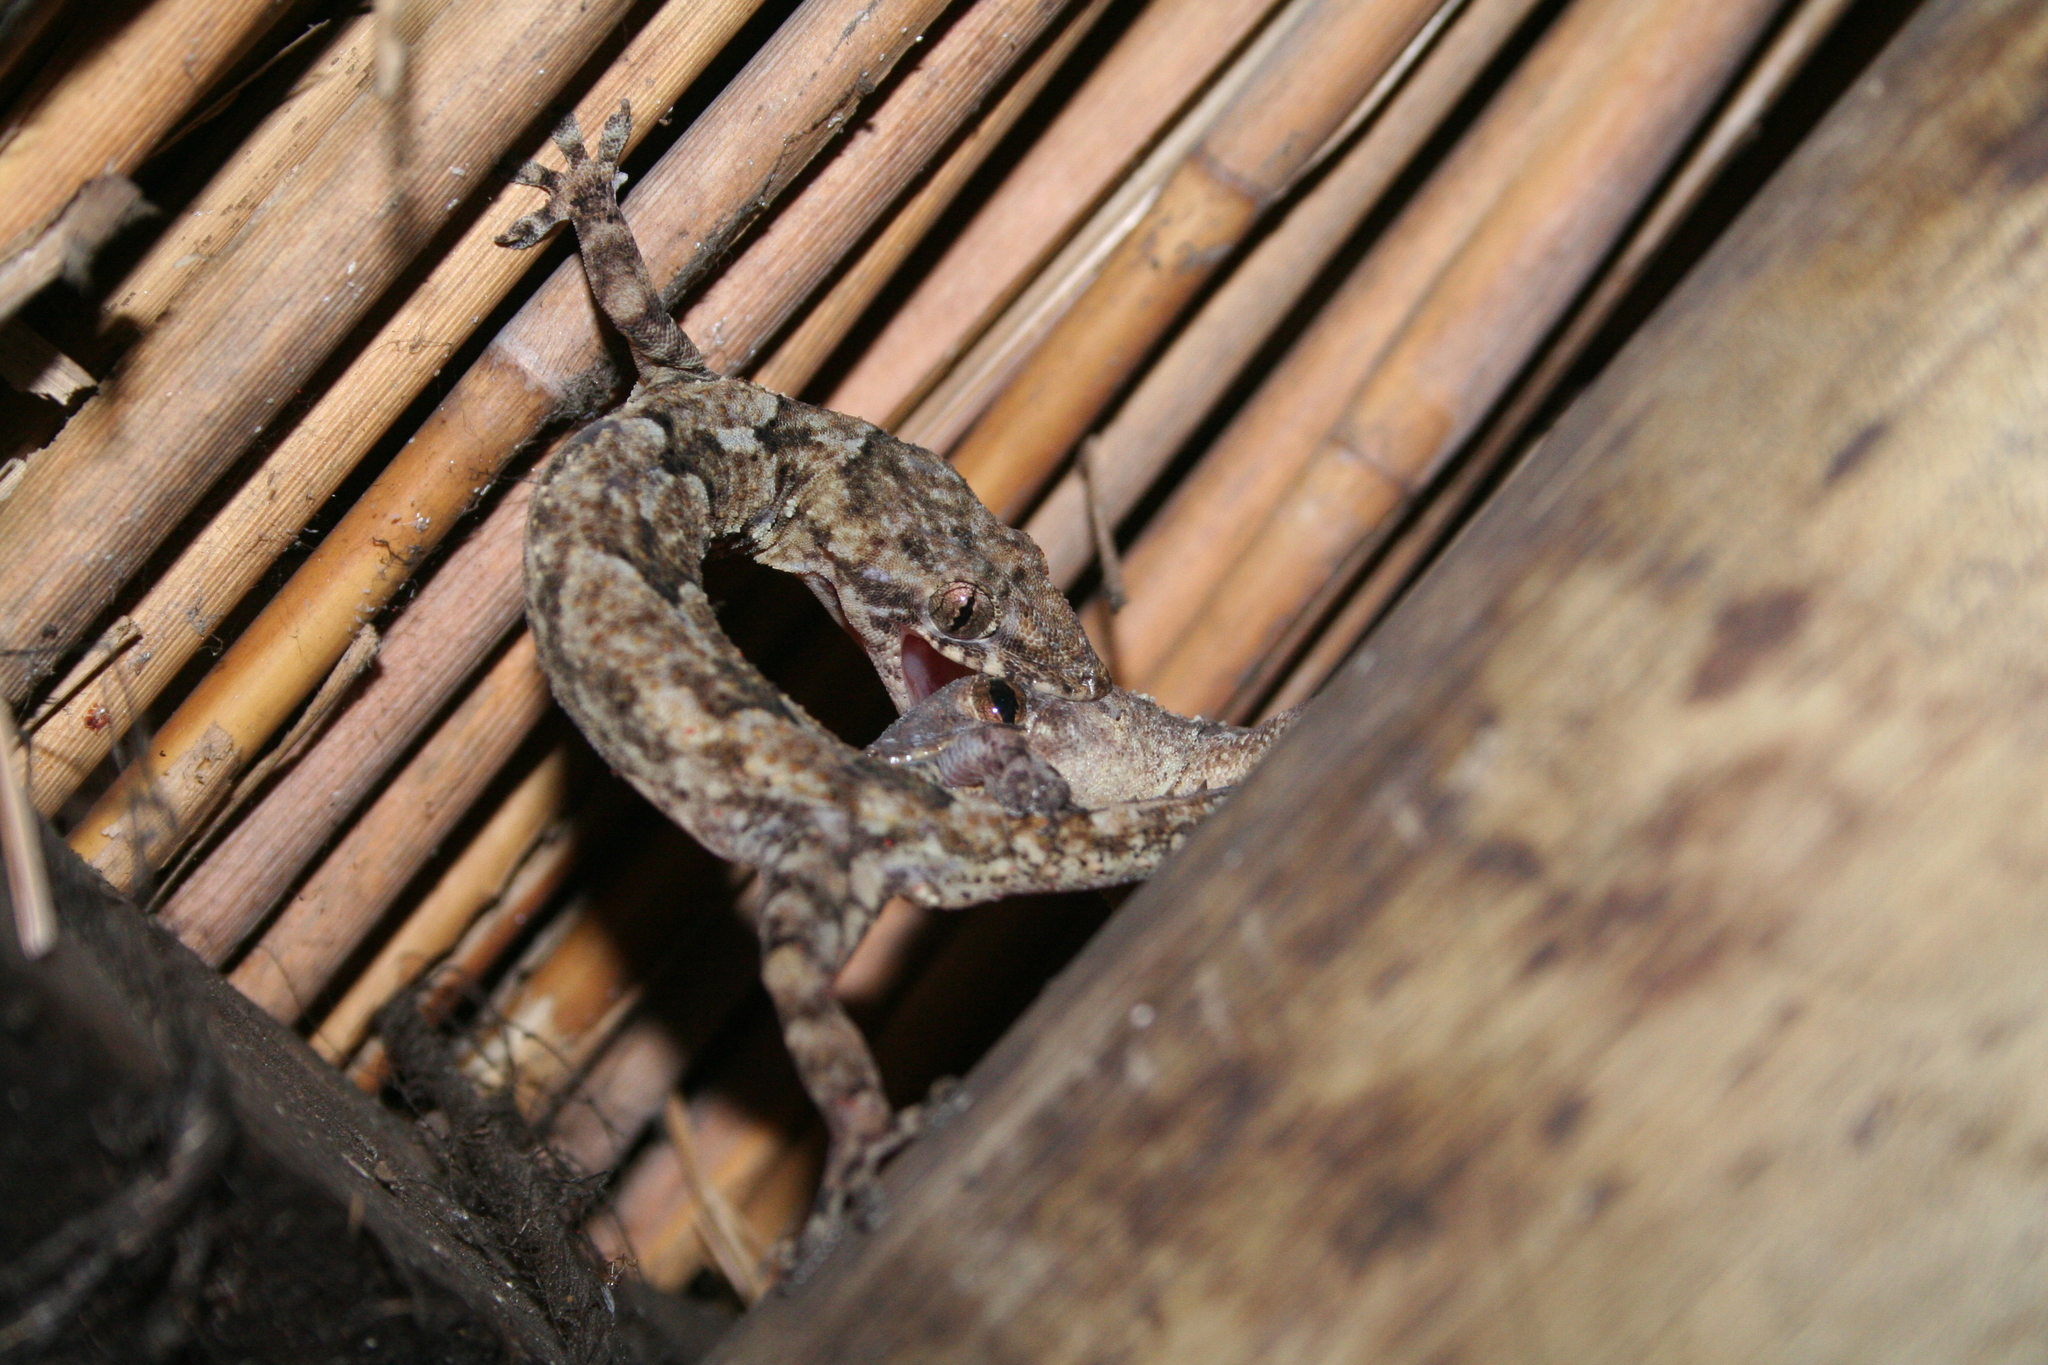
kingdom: Animalia
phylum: Chordata
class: Squamata
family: Gekkonidae
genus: Hemidactylus
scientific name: Hemidactylus mabouia
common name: House gecko
